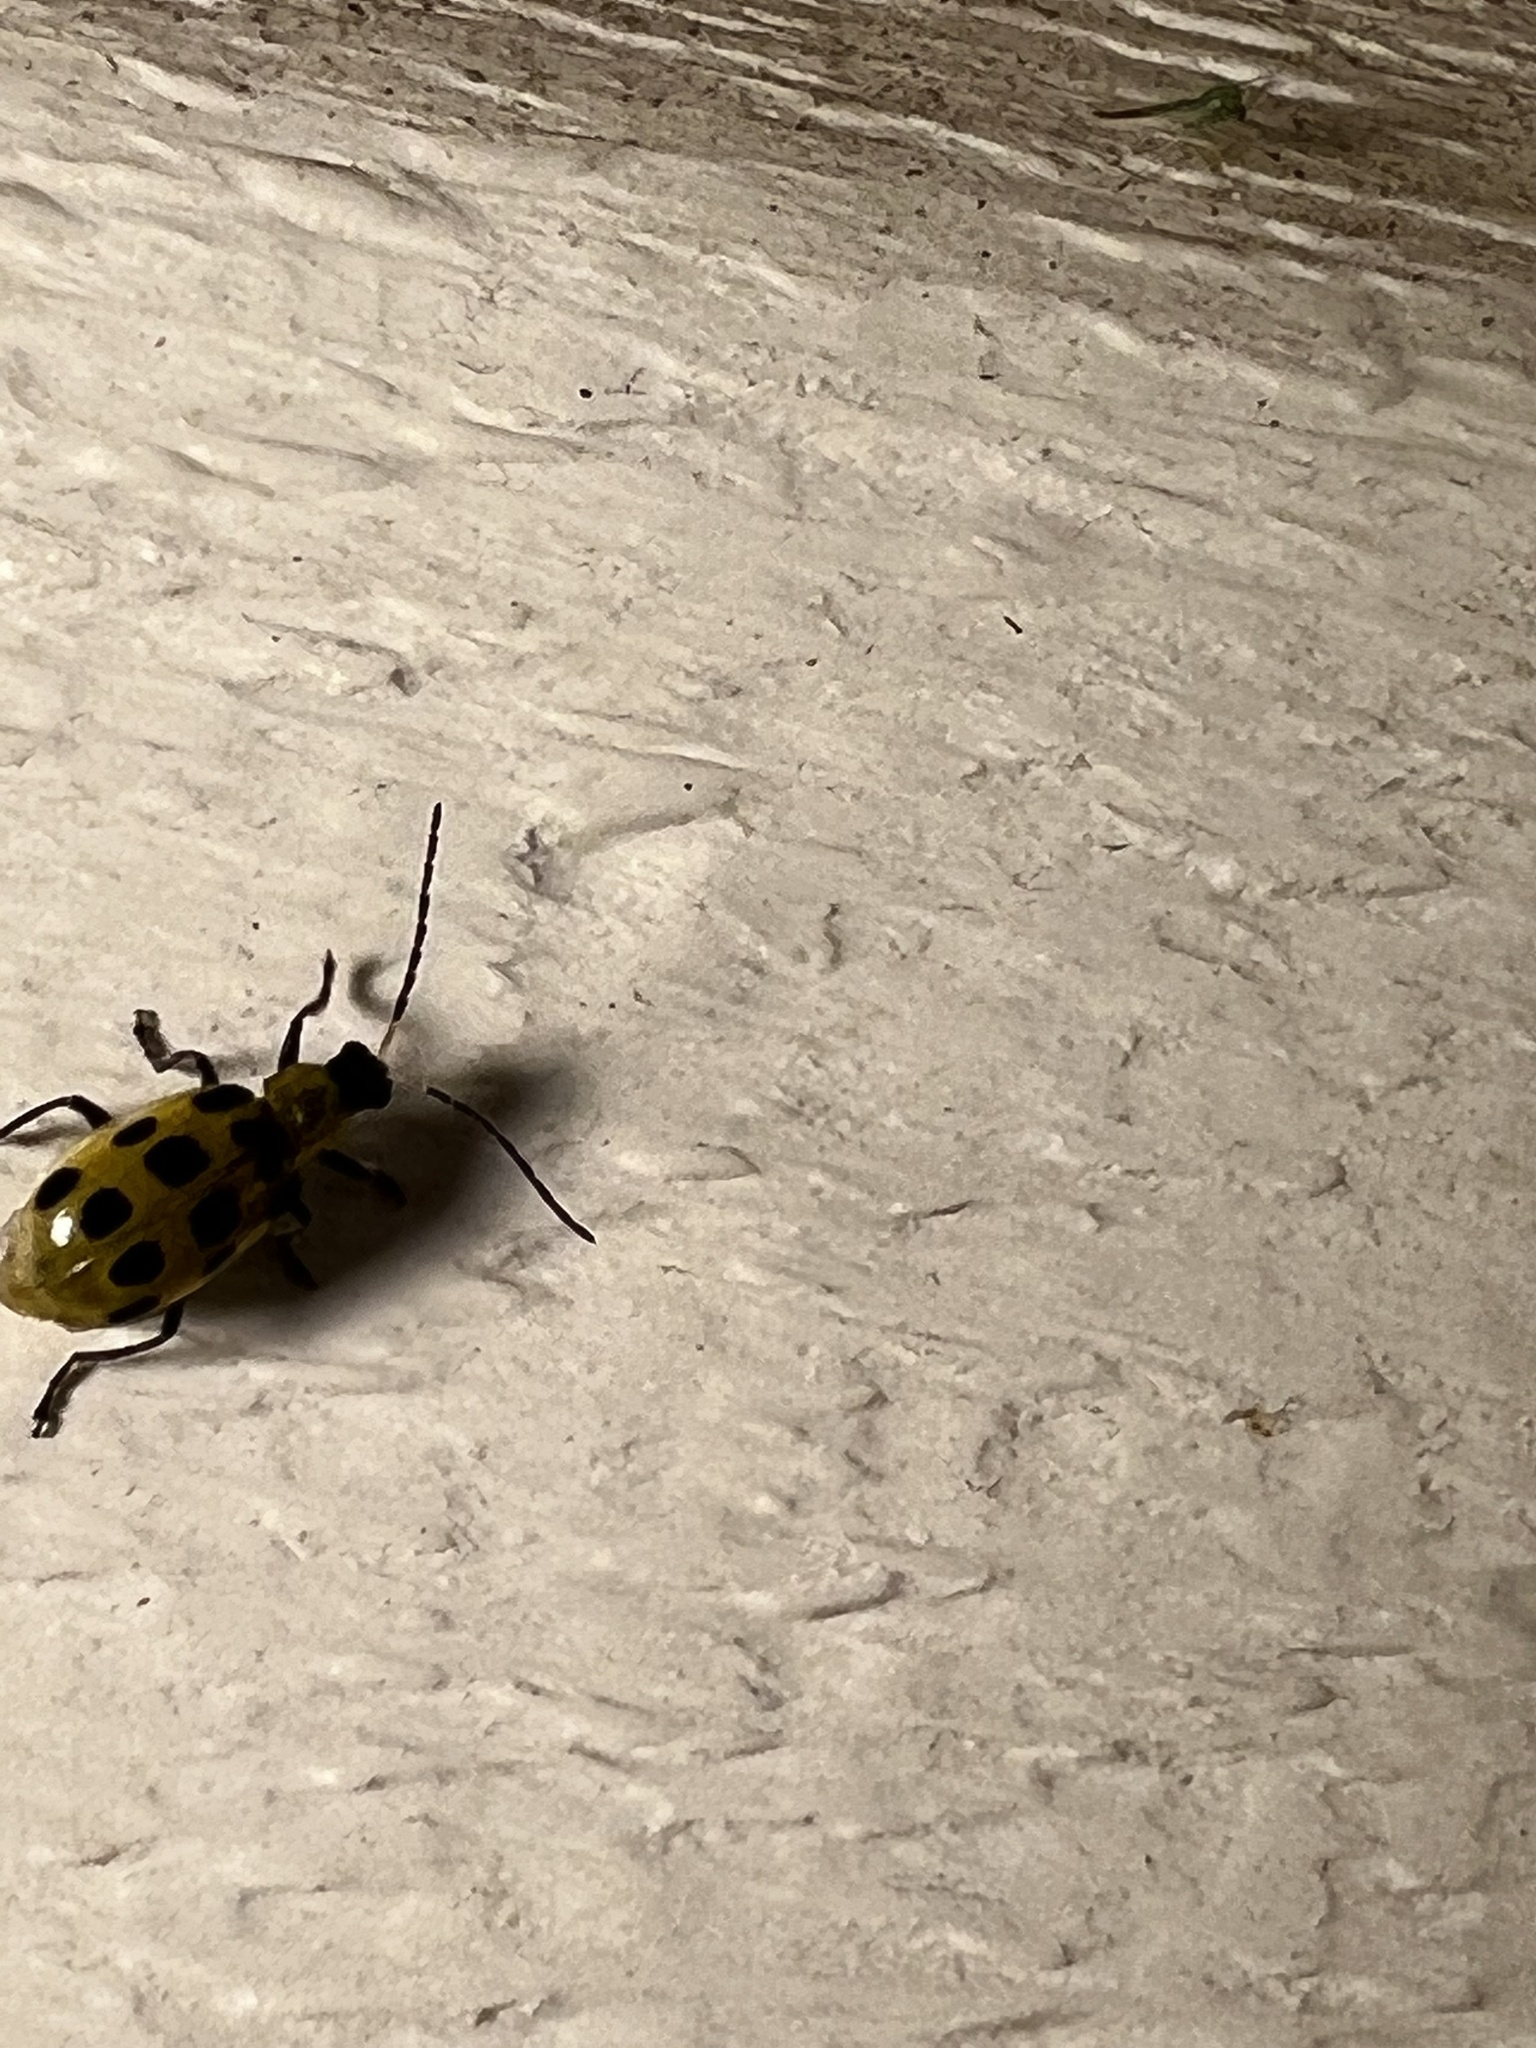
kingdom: Animalia
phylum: Arthropoda
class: Insecta
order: Coleoptera
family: Chrysomelidae
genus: Diabrotica
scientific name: Diabrotica undecimpunctata
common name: Spotted cucumber beetle
